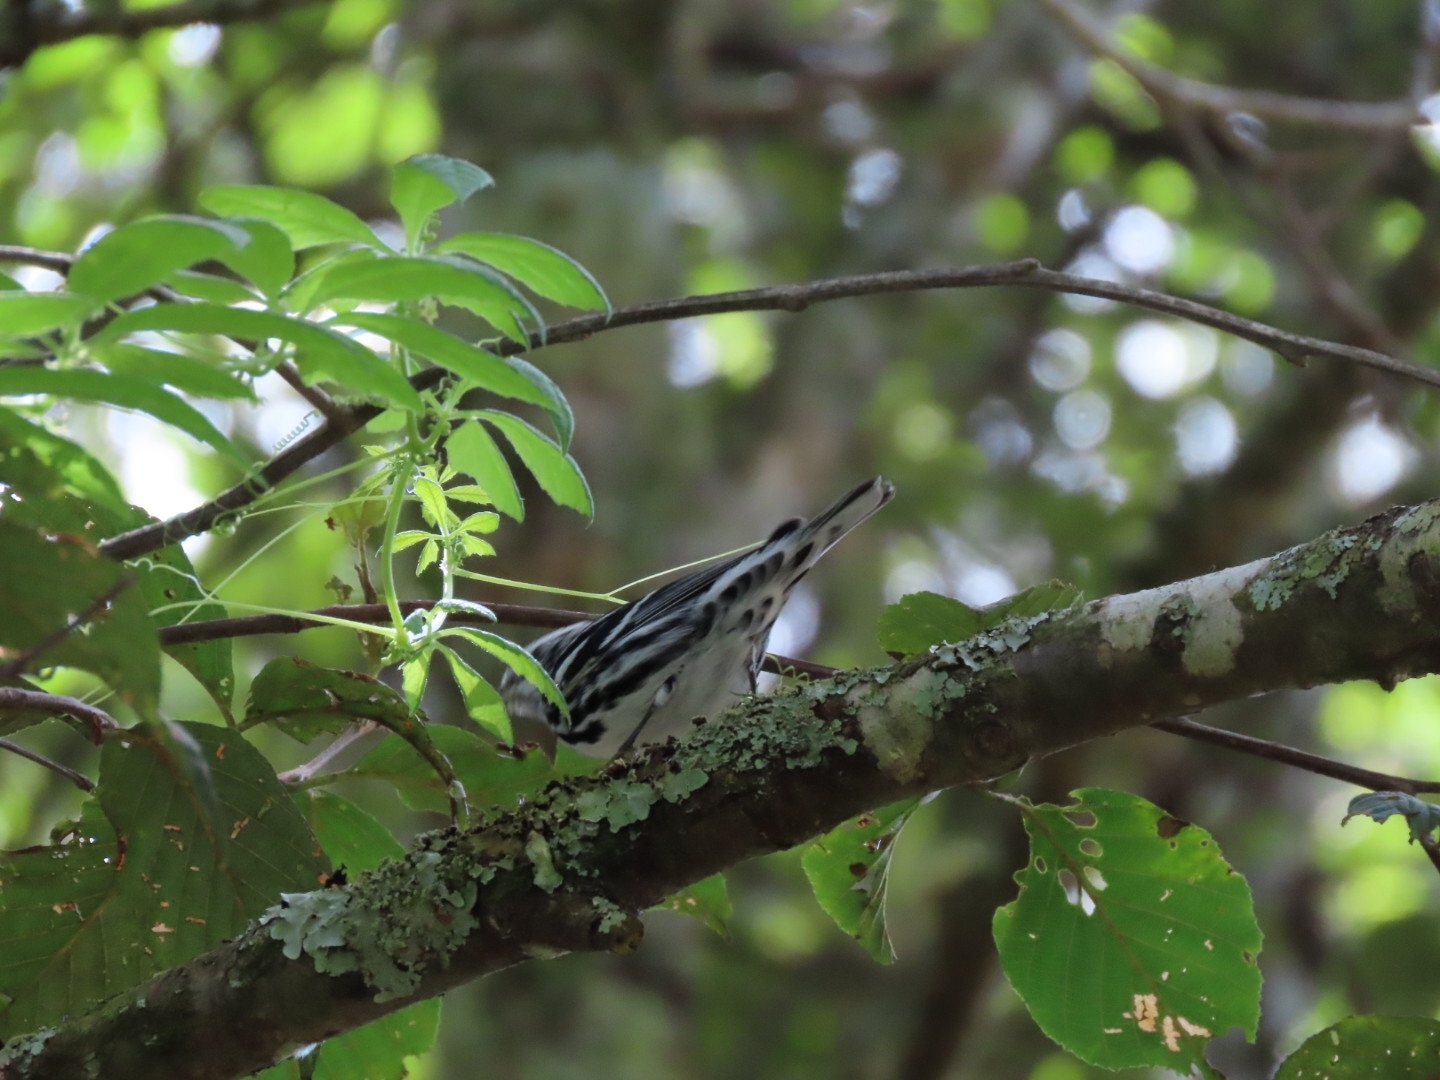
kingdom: Animalia
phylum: Chordata
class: Aves
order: Passeriformes
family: Parulidae
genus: Mniotilta
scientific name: Mniotilta varia
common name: Black-and-white warbler
